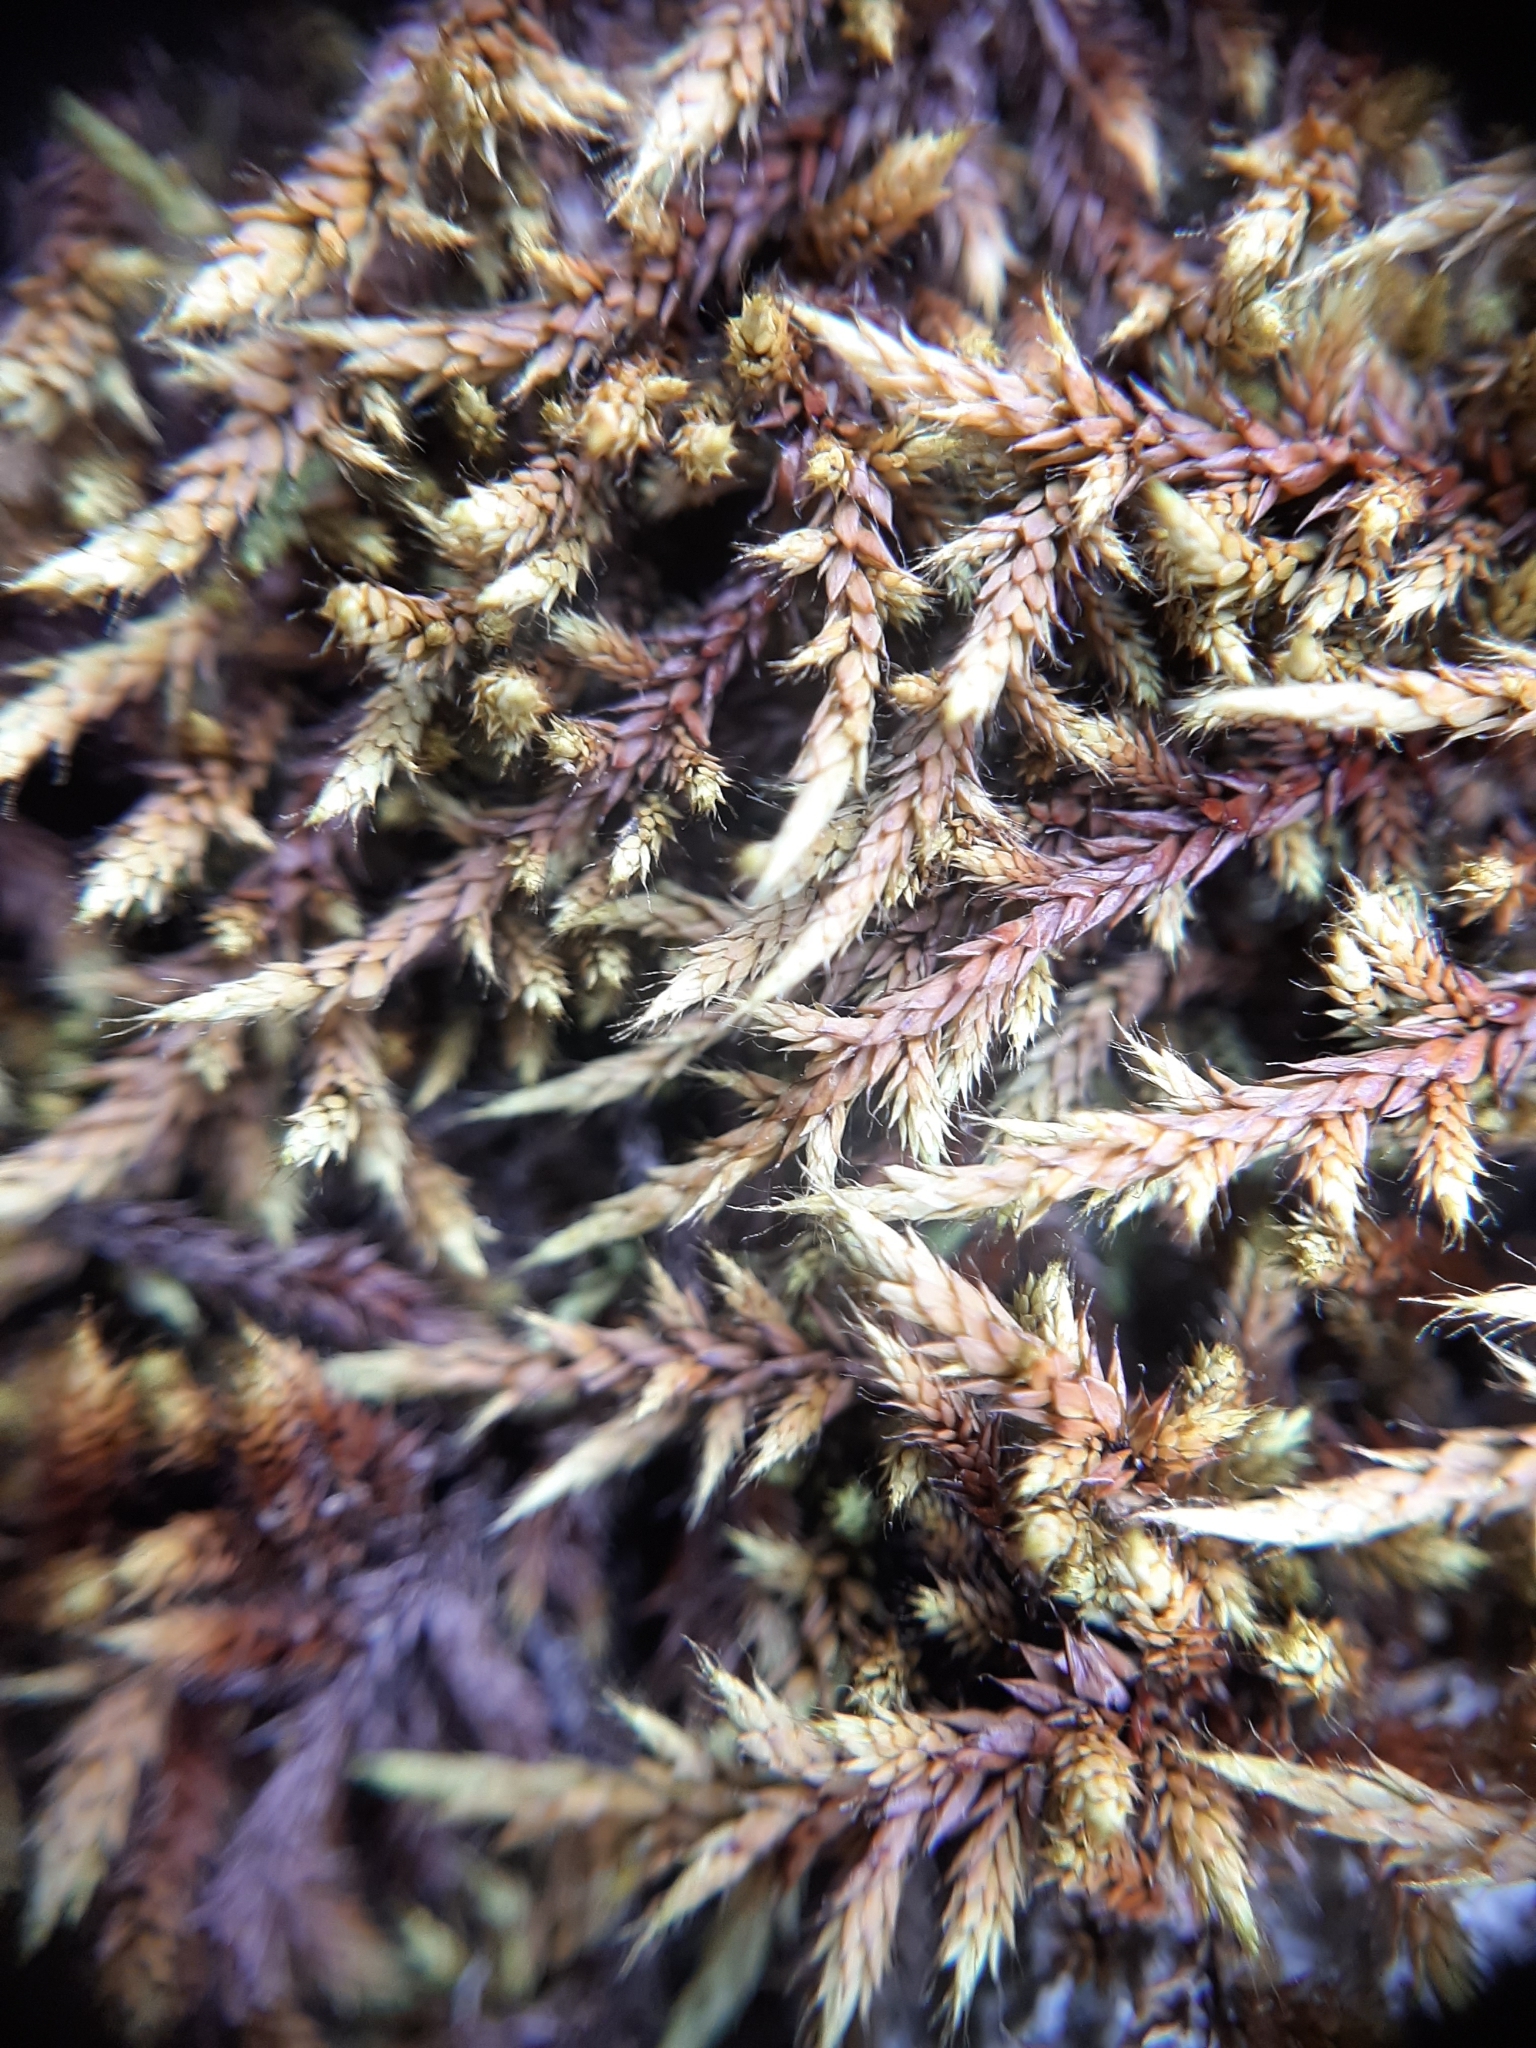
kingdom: Plantae
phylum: Bryophyta
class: Bryopsida
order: Hedwigiales
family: Hedwigiaceae
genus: Rhacocarpus
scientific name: Rhacocarpus purpurascens
